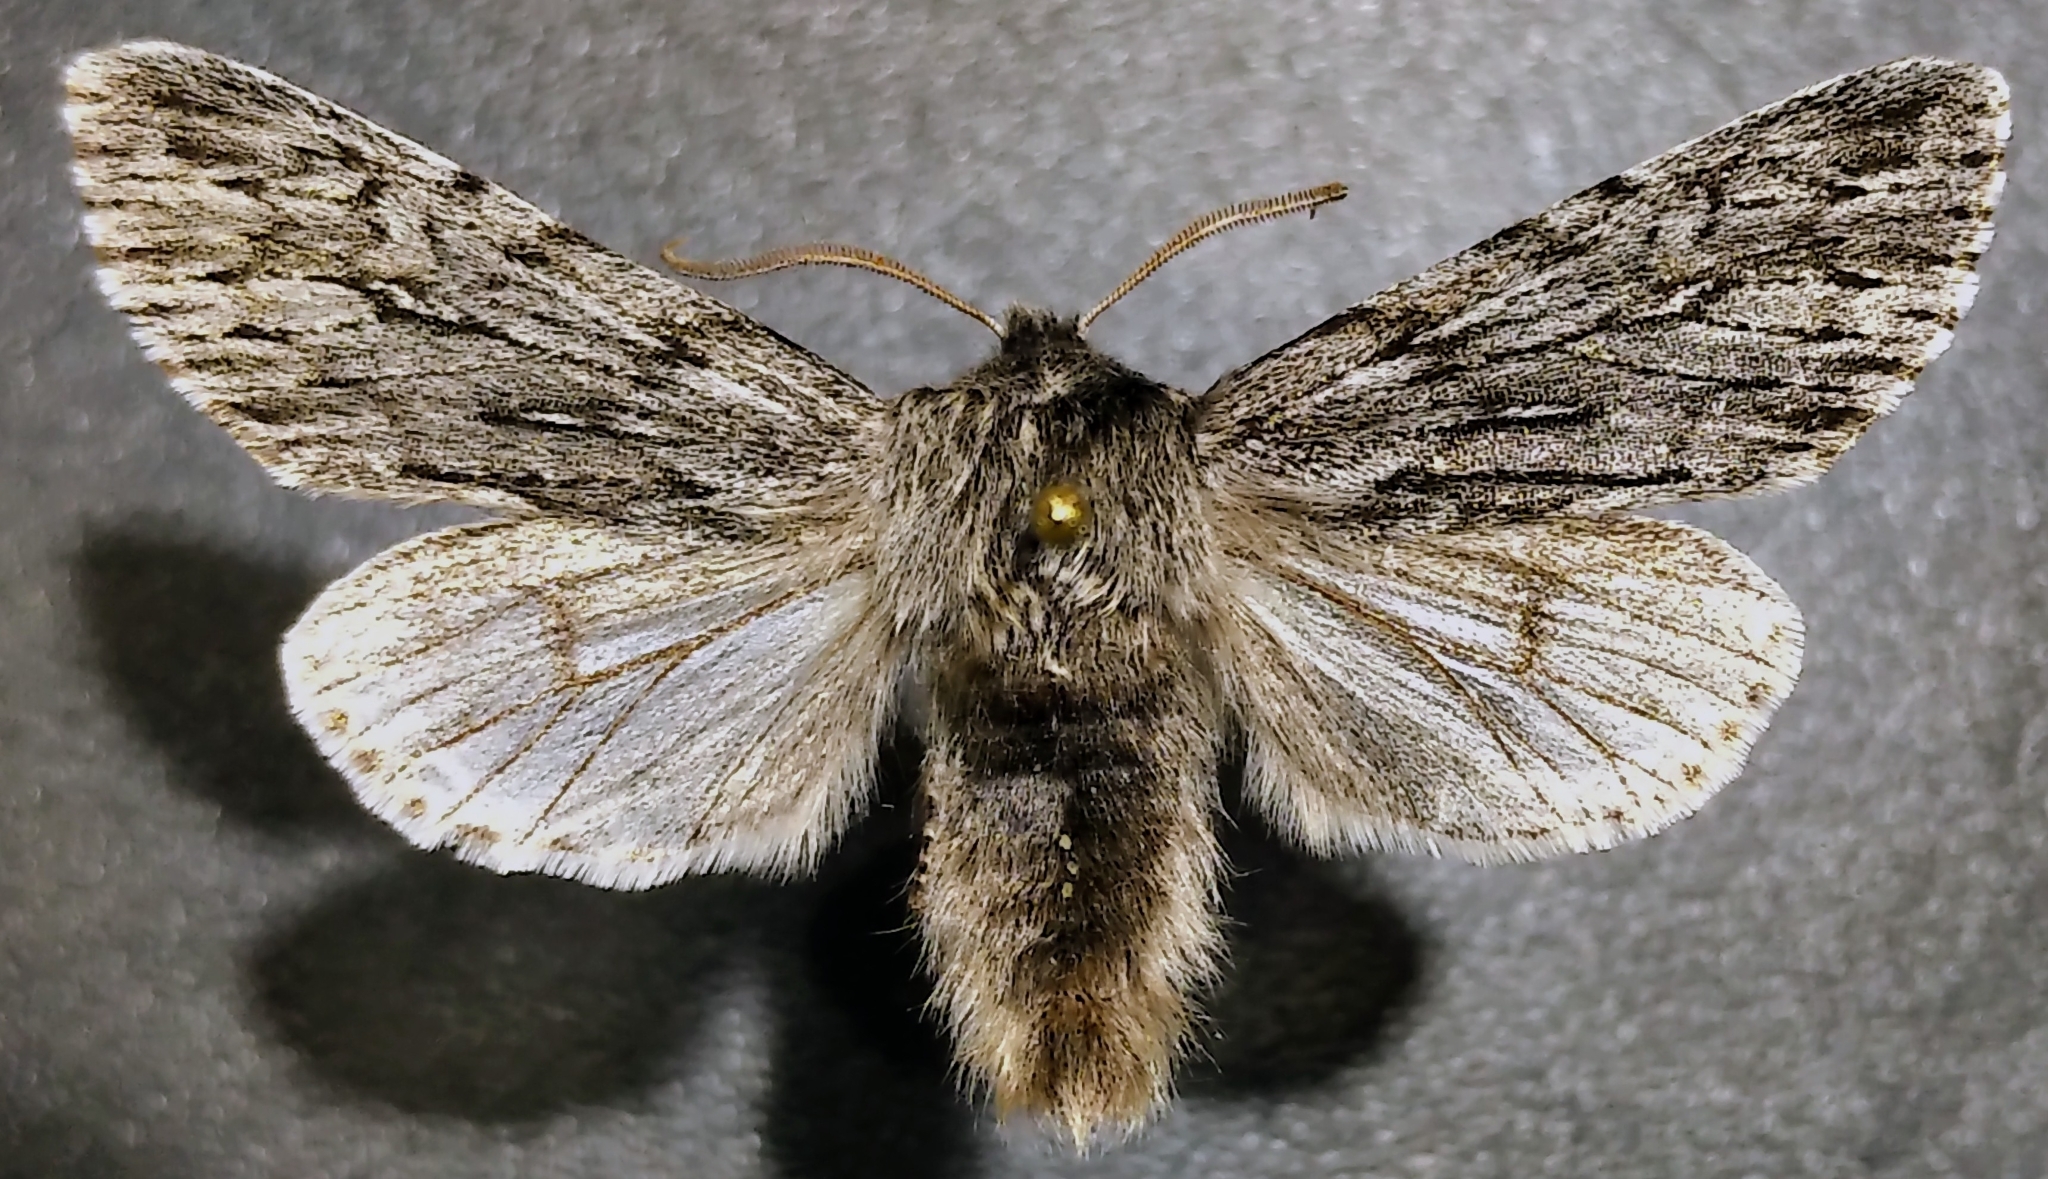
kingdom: Animalia
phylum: Arthropoda
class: Insecta
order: Lepidoptera
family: Noctuidae
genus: Brachionycha
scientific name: Brachionycha borealis
